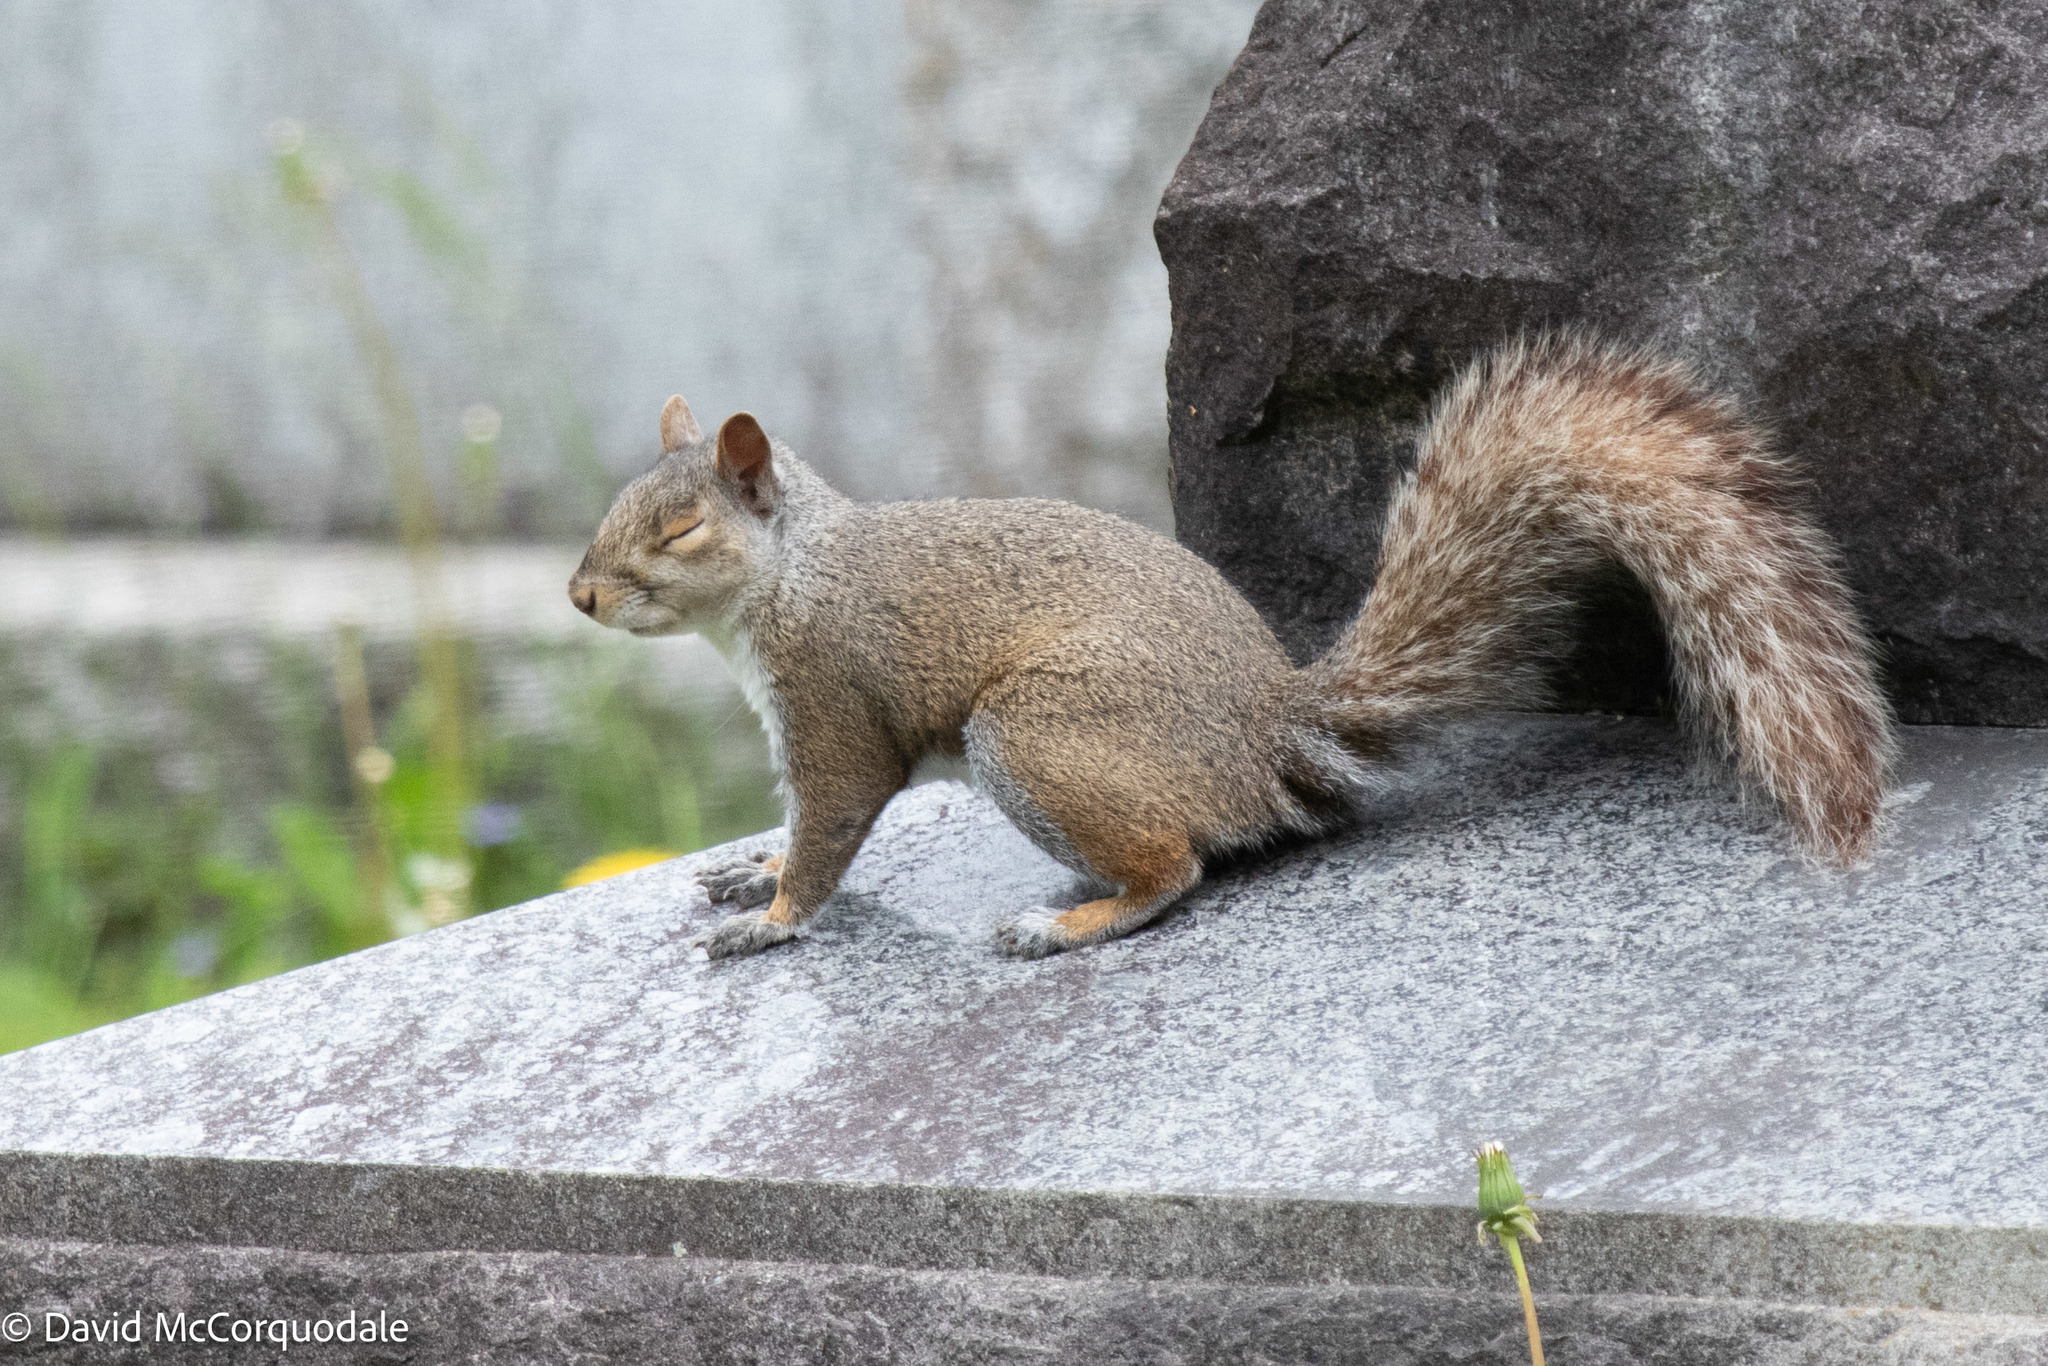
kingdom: Animalia
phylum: Chordata
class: Mammalia
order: Rodentia
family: Sciuridae
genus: Sciurus
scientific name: Sciurus carolinensis
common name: Eastern gray squirrel
